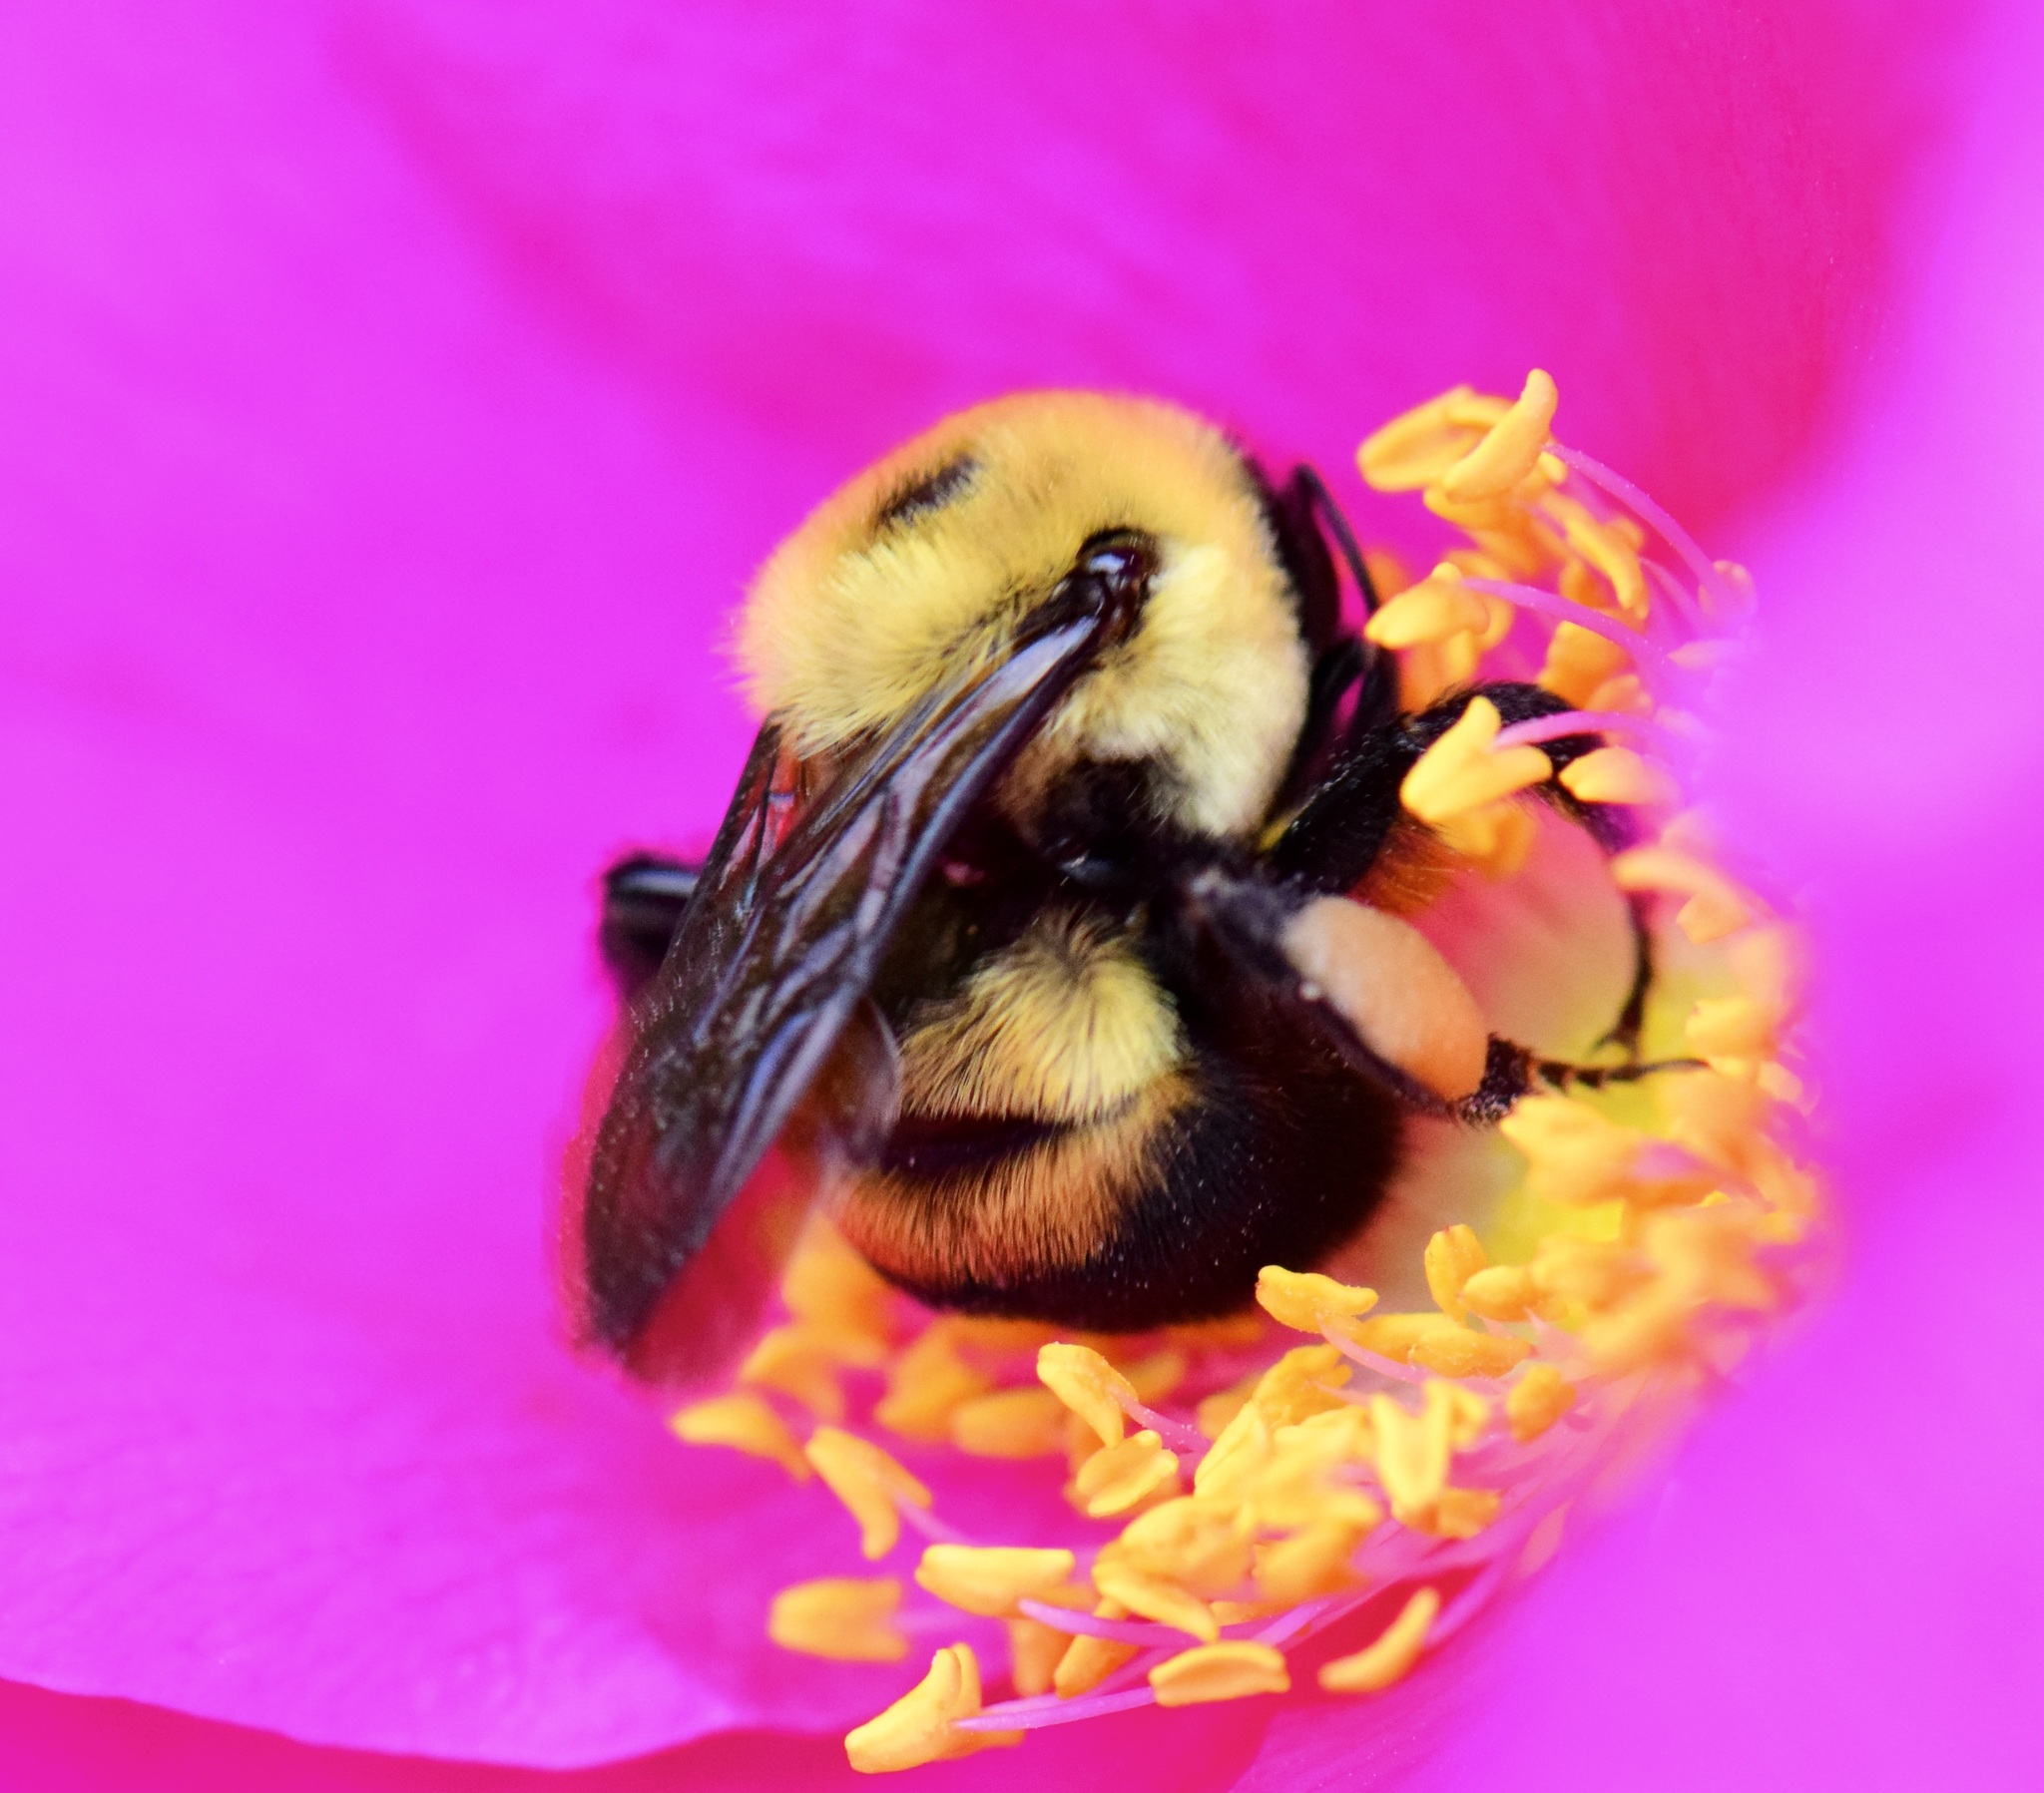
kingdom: Animalia
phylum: Arthropoda
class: Insecta
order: Hymenoptera
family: Apidae
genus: Bombus
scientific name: Bombus griseocollis
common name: Brown-belted bumble bee
